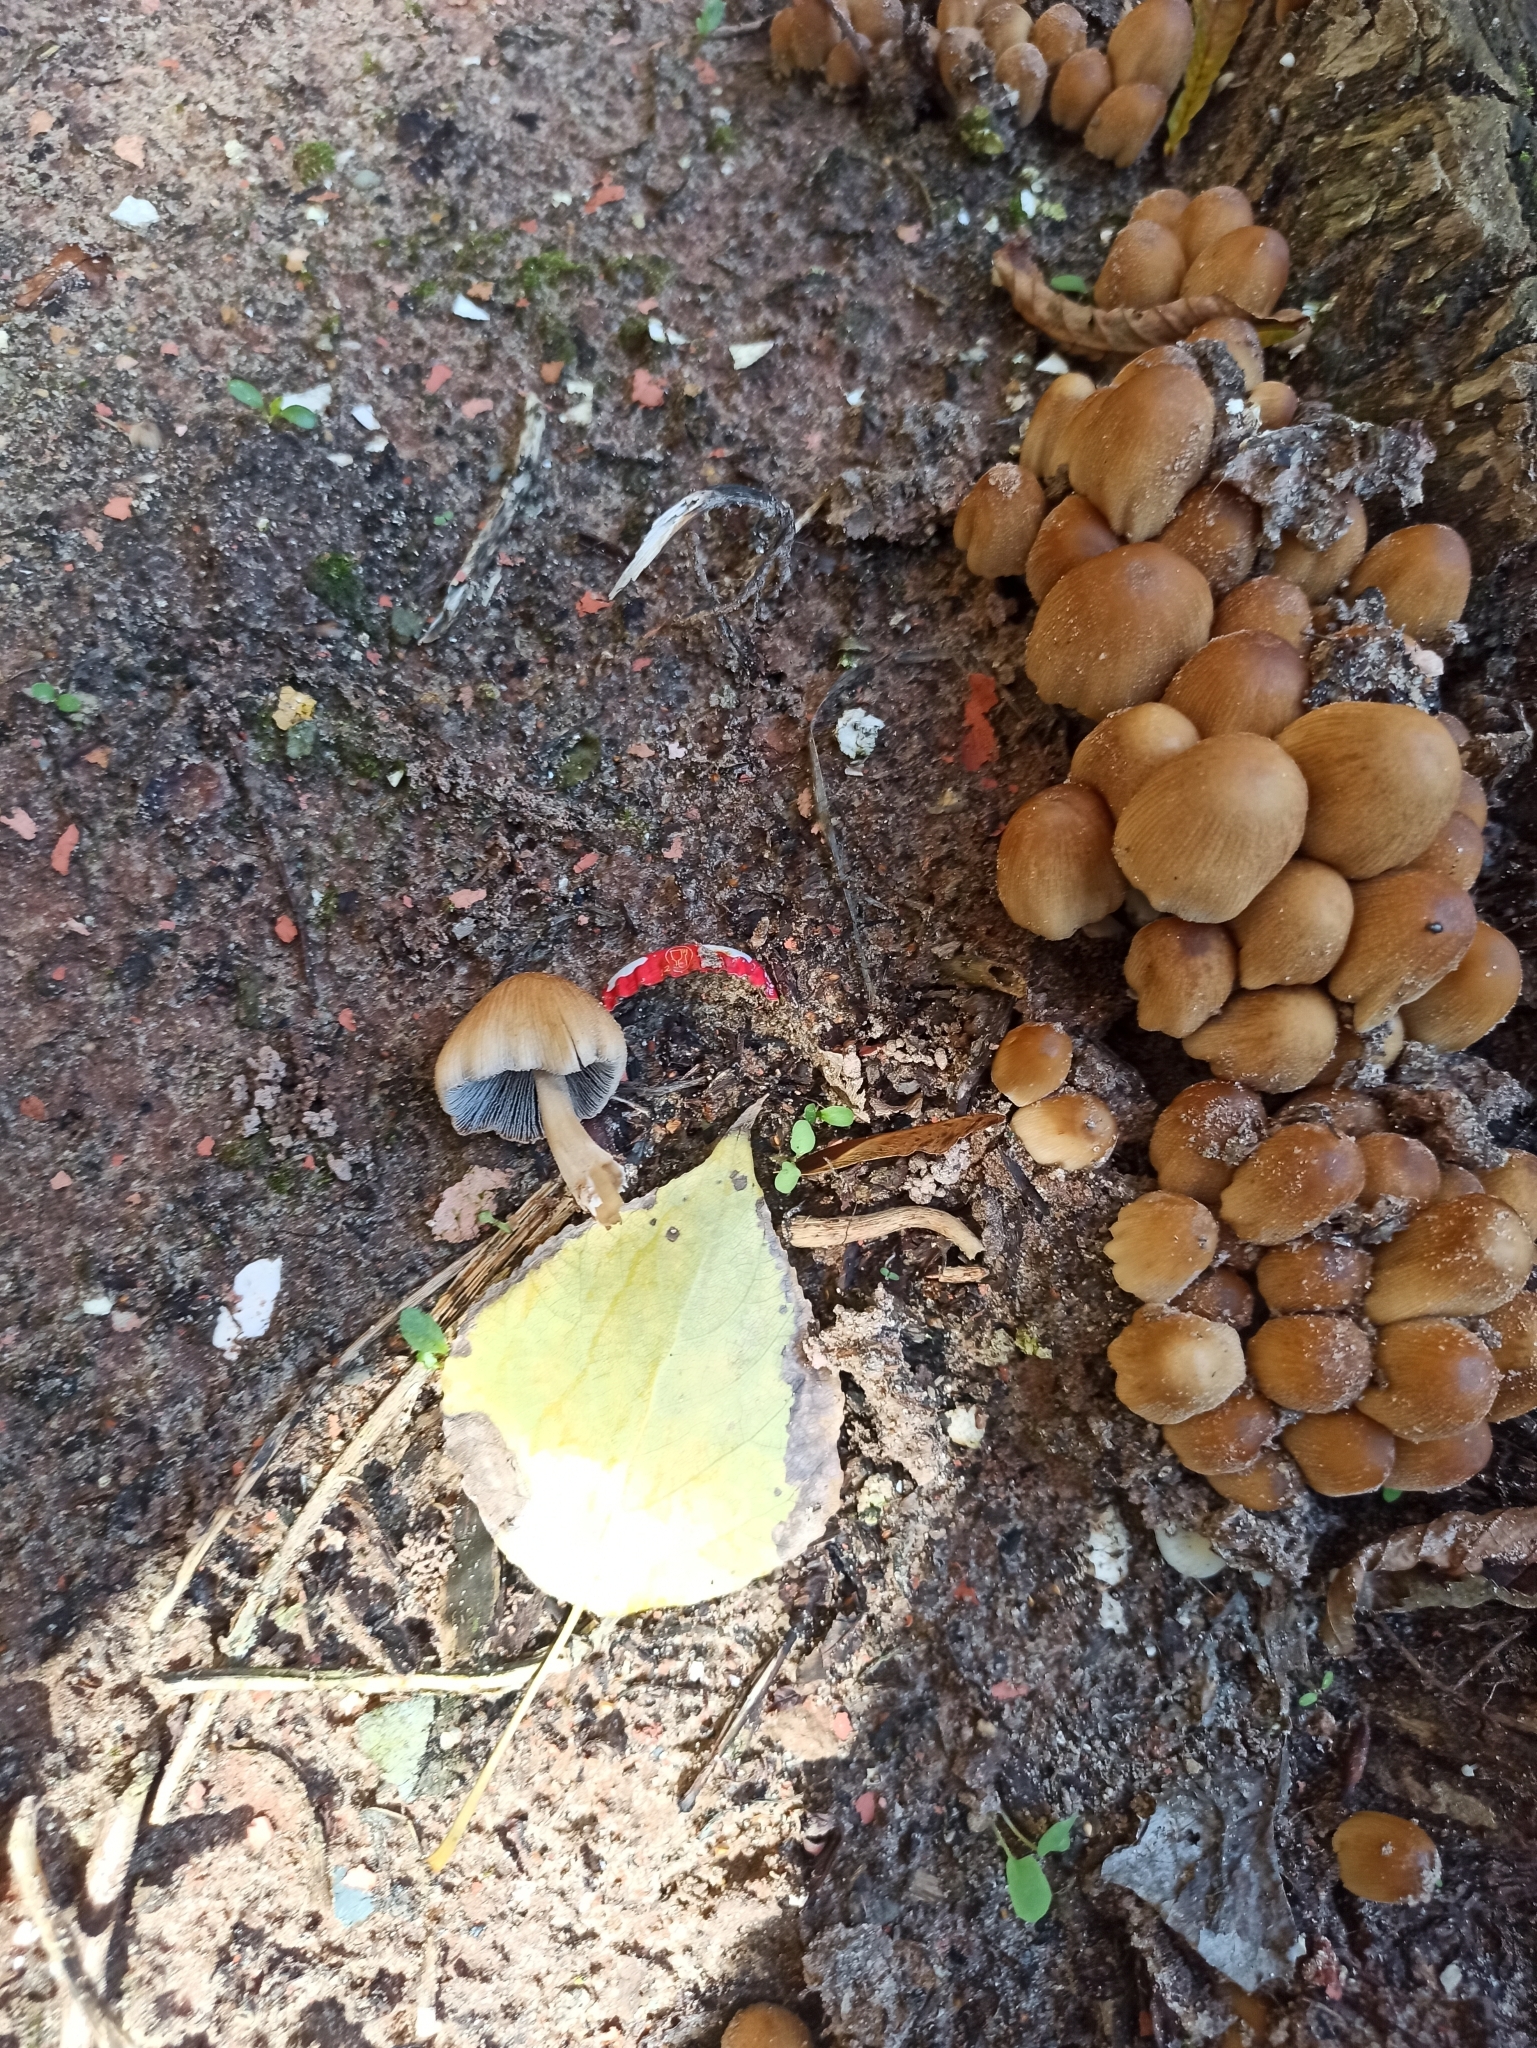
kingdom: Fungi
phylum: Basidiomycota
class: Agaricomycetes
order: Agaricales
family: Psathyrellaceae
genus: Coprinellus
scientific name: Coprinellus micaceus
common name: Glistening ink-cap
